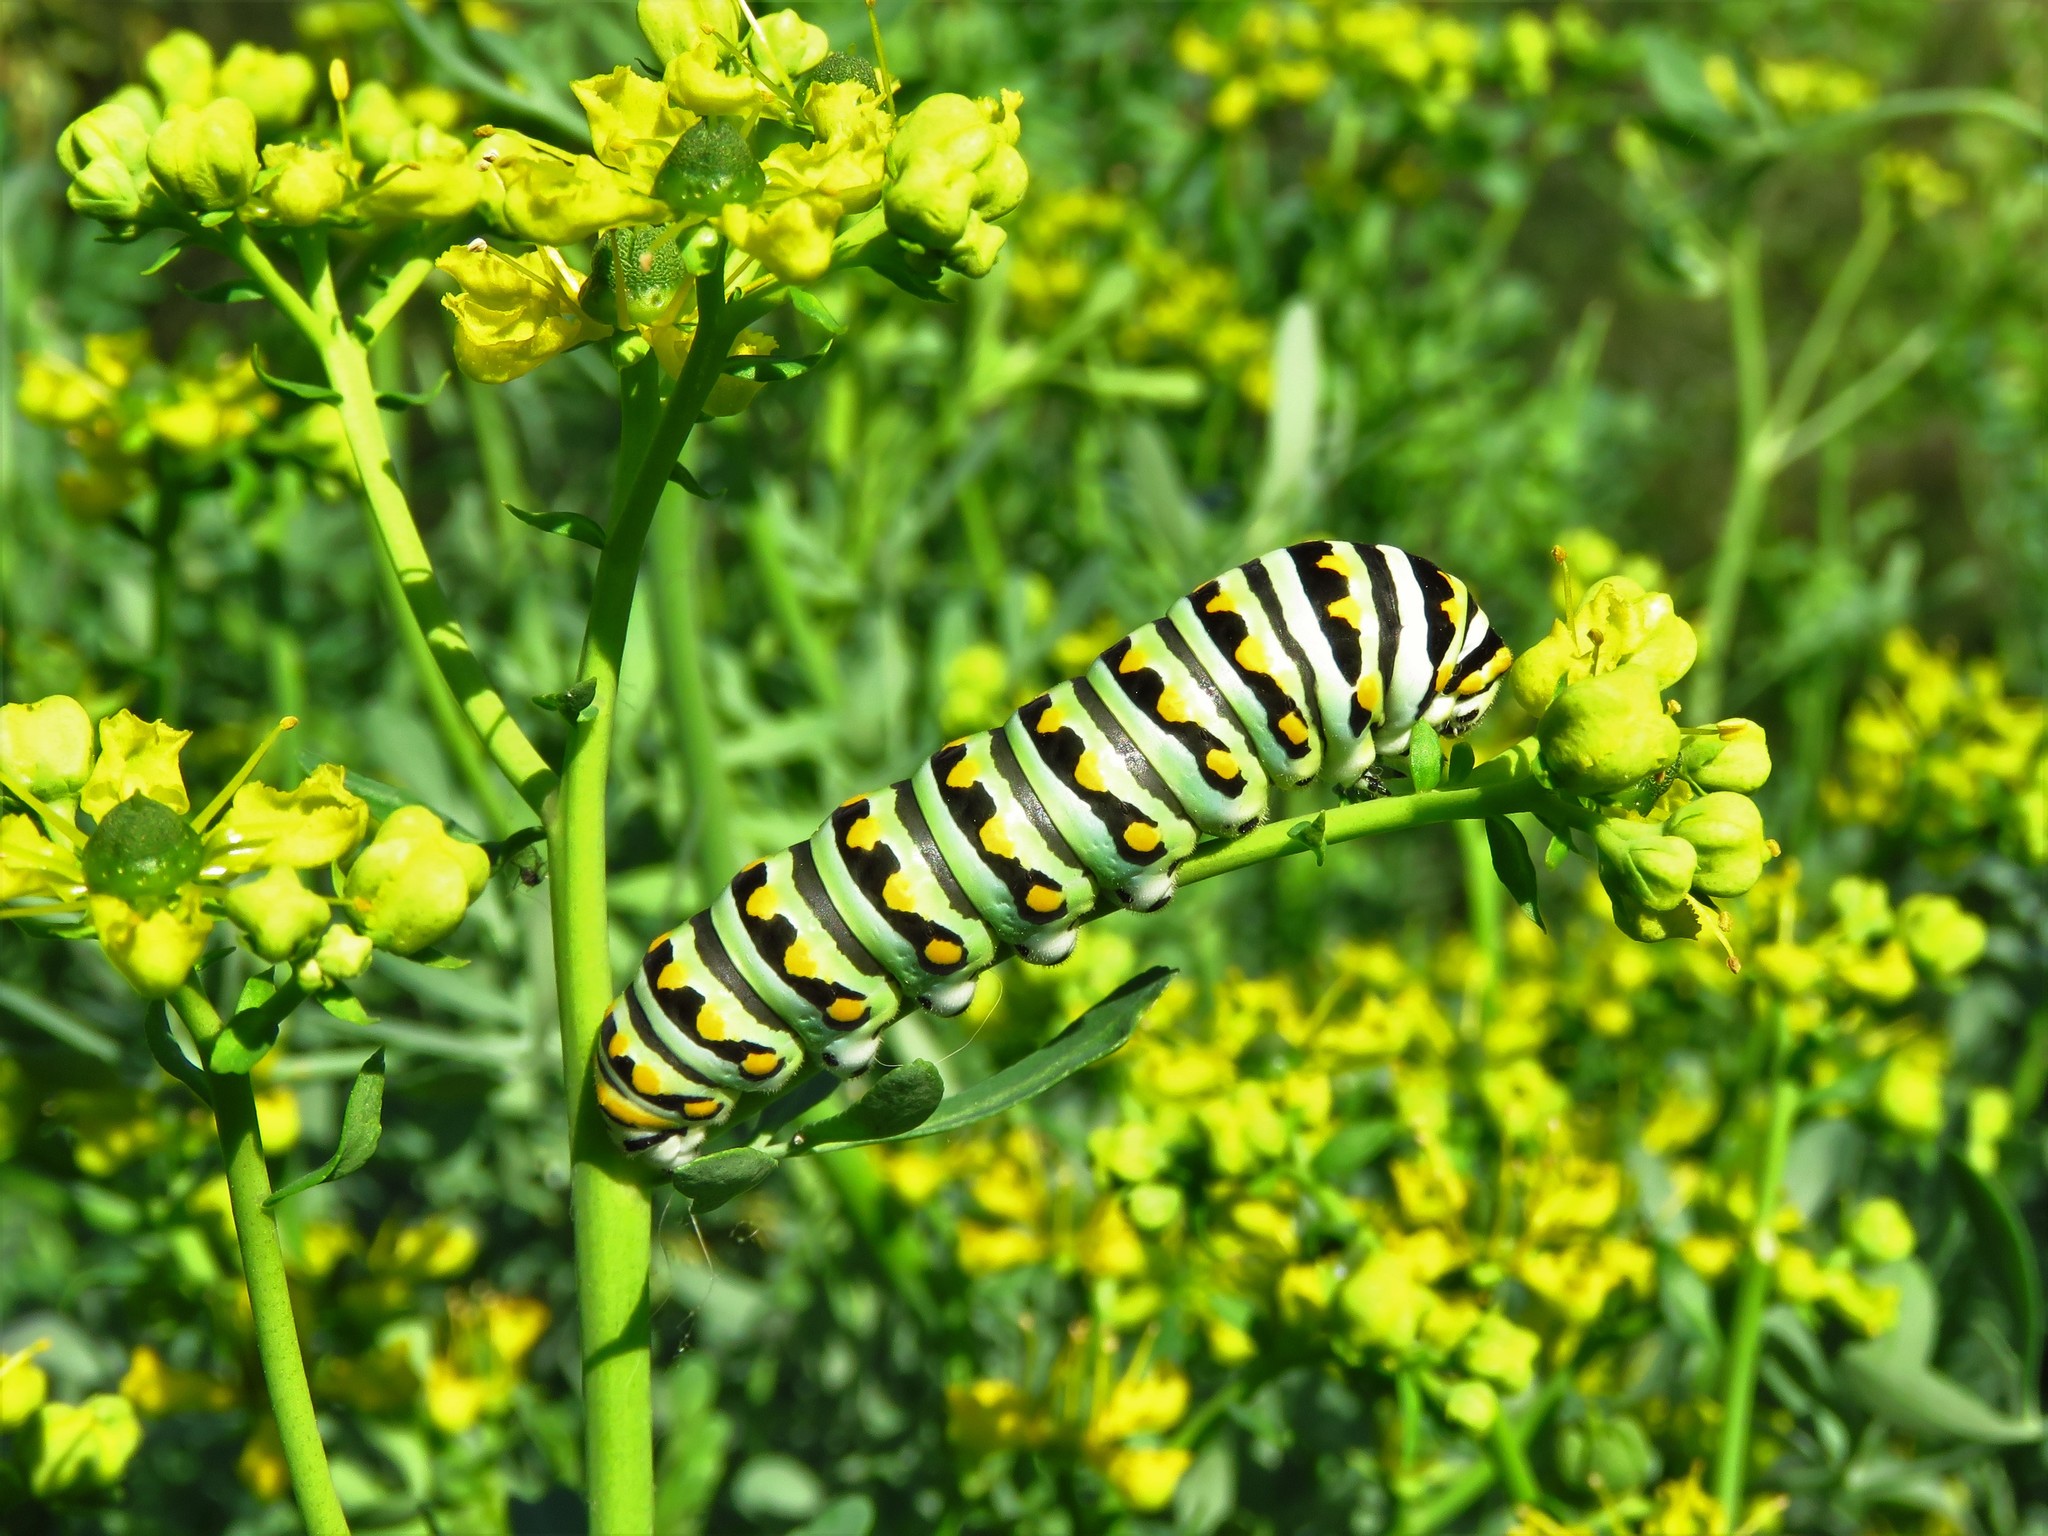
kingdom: Animalia
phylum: Arthropoda
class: Insecta
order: Lepidoptera
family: Papilionidae
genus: Papilio
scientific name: Papilio polyxenes
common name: Black swallowtail
